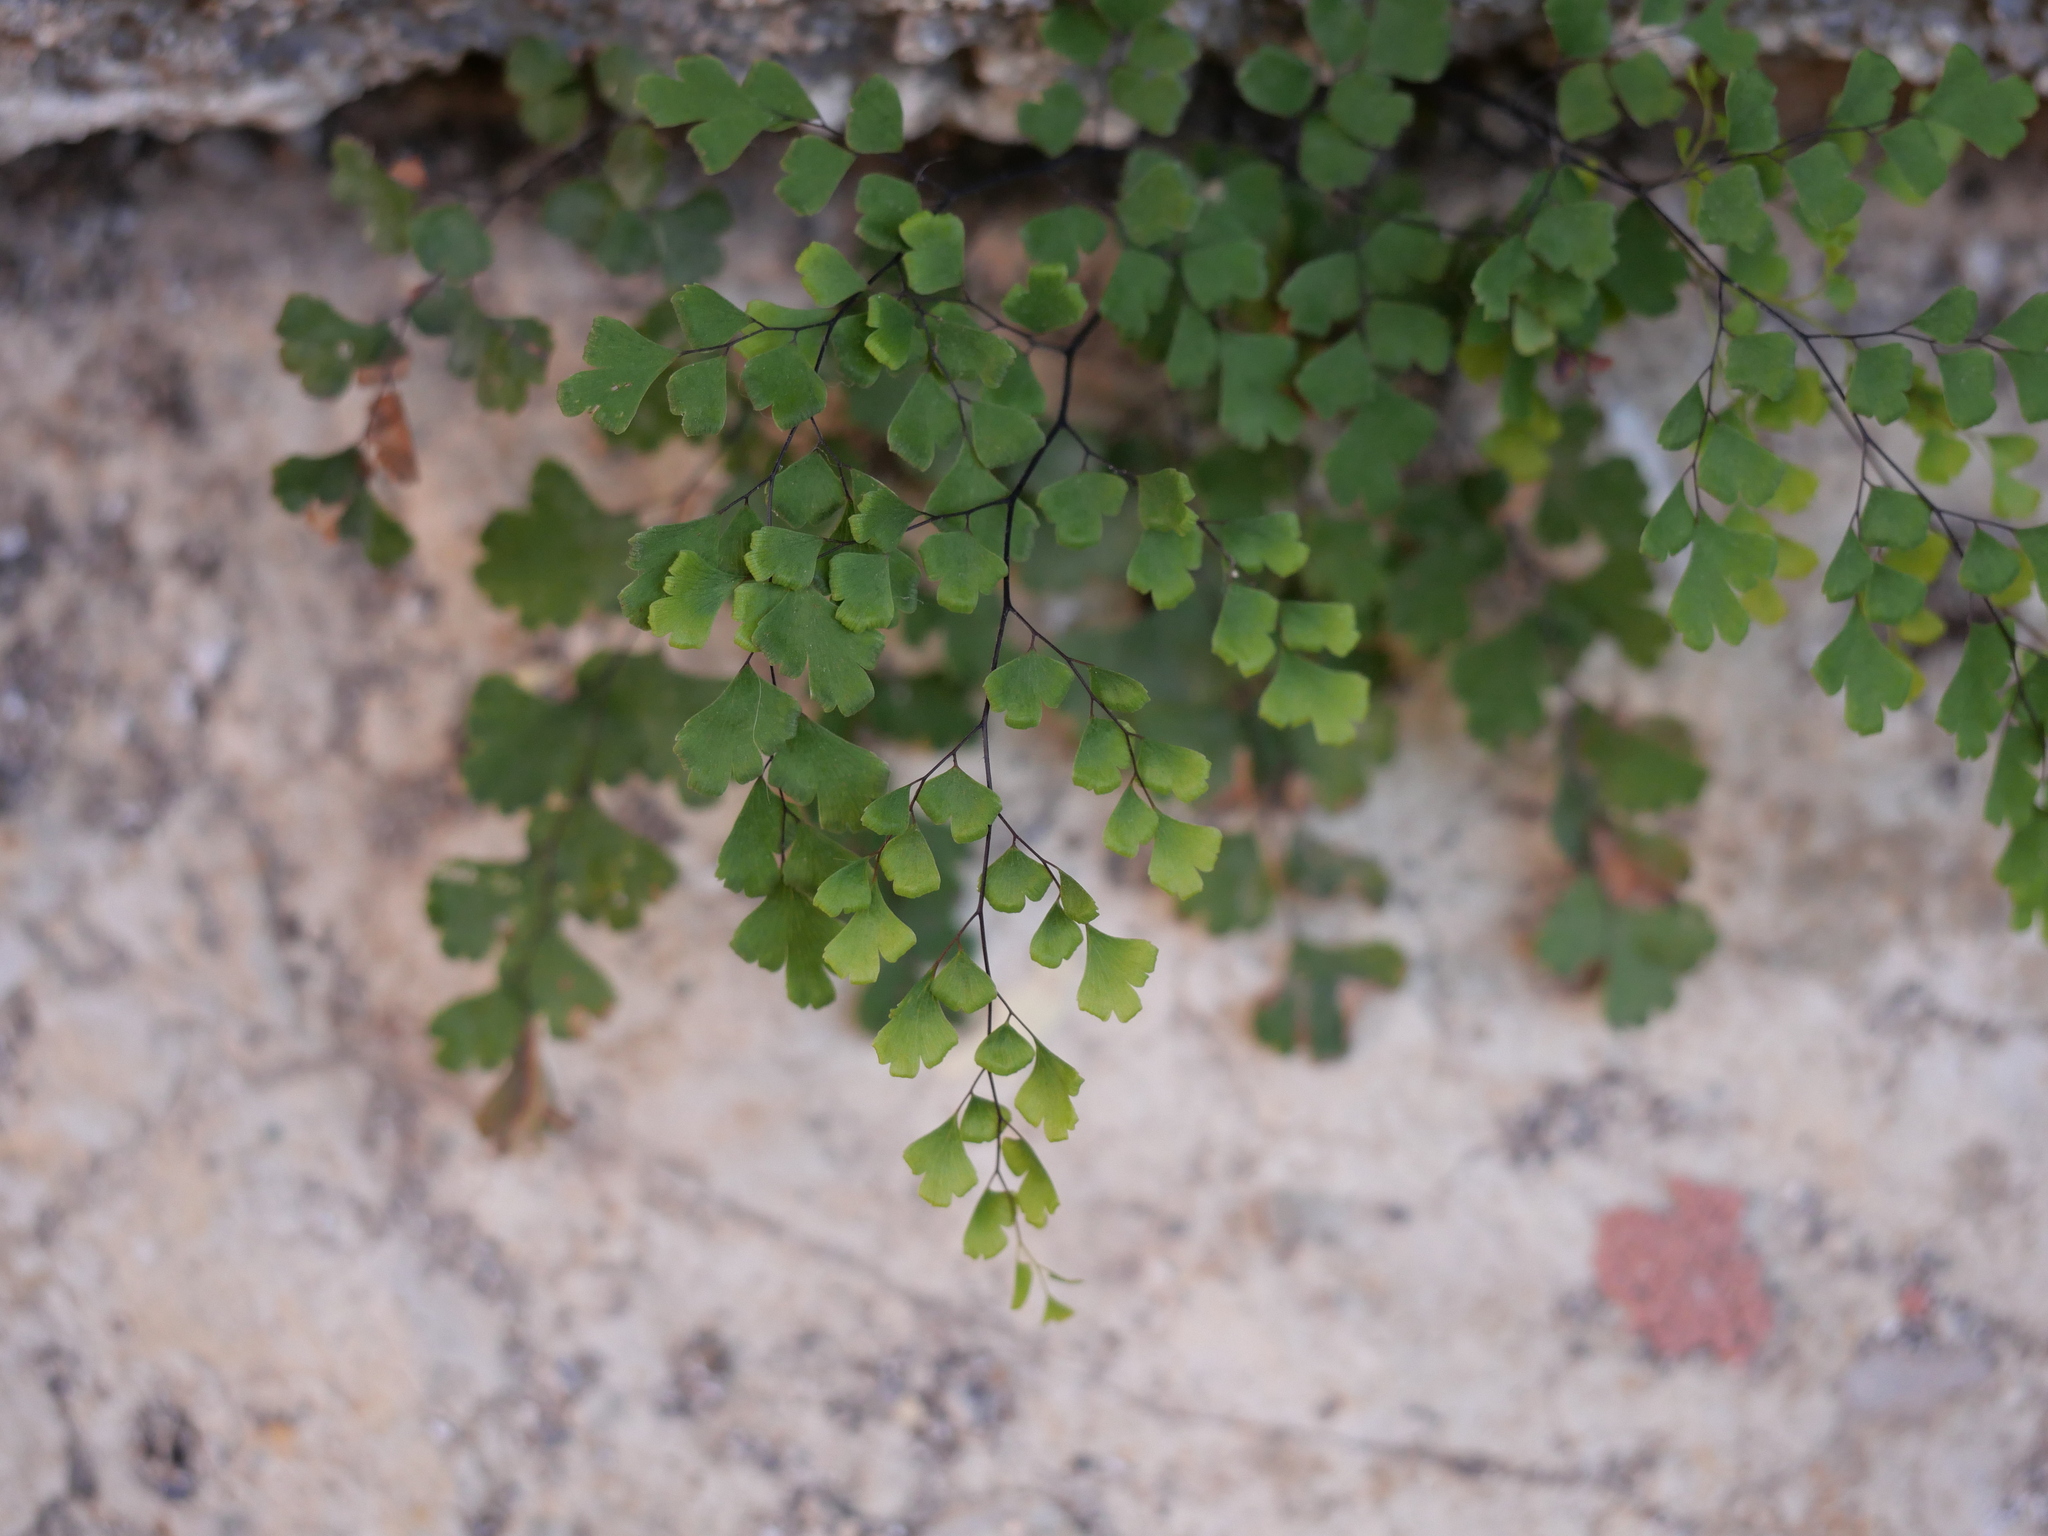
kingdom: Plantae
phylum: Tracheophyta
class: Polypodiopsida
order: Polypodiales
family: Pteridaceae
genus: Adiantum
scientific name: Adiantum capillus-veneris
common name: Maidenhair fern
